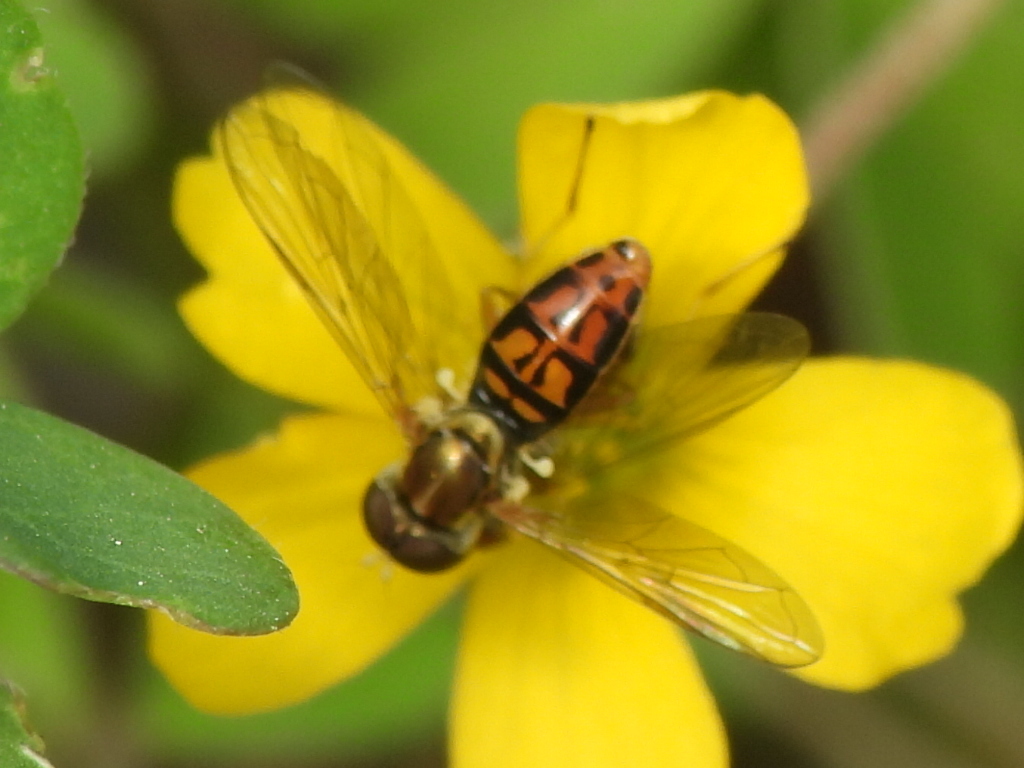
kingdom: Animalia
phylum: Arthropoda
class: Insecta
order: Diptera
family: Syrphidae
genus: Toxomerus
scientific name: Toxomerus marginatus
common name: Syrphid fly
